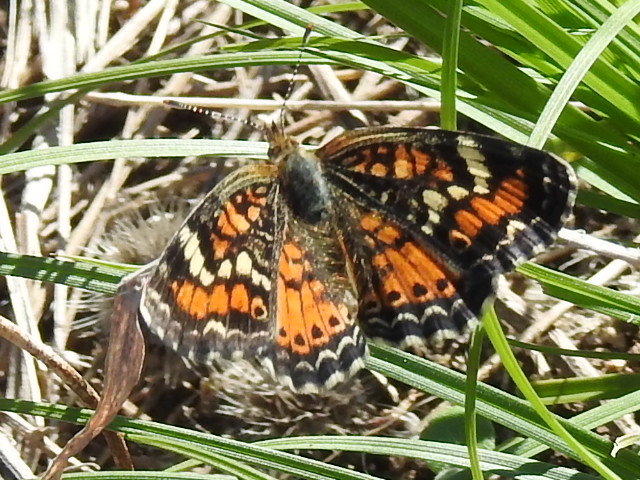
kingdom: Animalia
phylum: Arthropoda
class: Insecta
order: Lepidoptera
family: Nymphalidae
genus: Phyciodes
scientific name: Phyciodes phaon
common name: Phaon crescent
